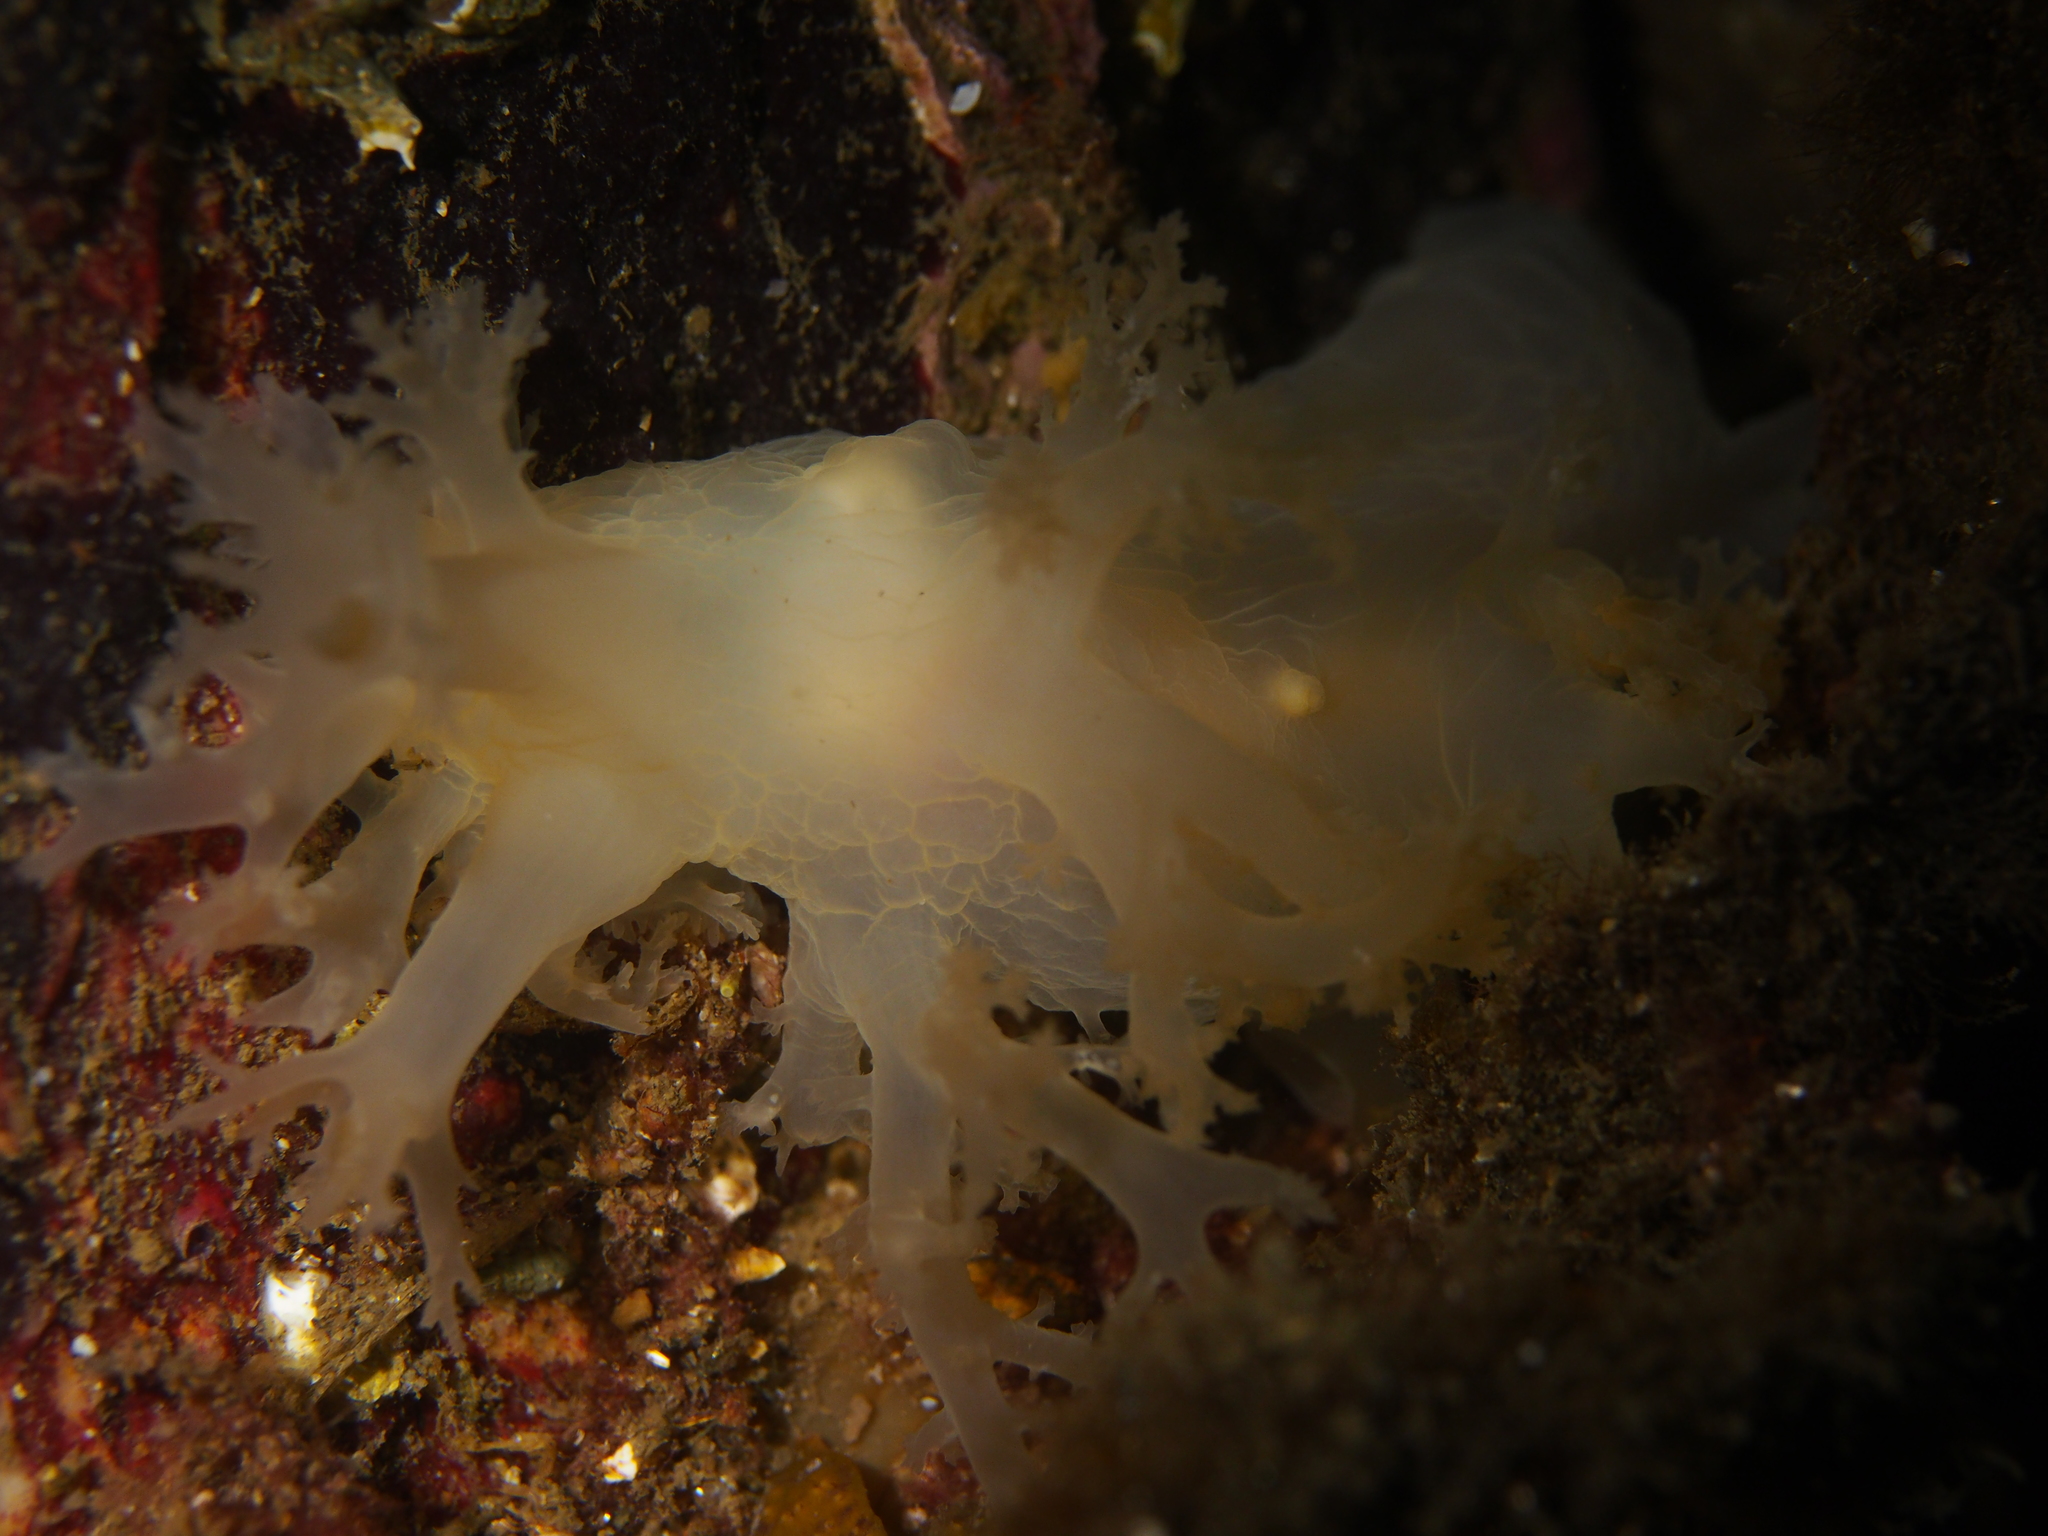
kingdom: Animalia
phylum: Mollusca
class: Gastropoda
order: Nudibranchia
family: Dendronotidae
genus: Dendronotus
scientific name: Dendronotus lacteus
